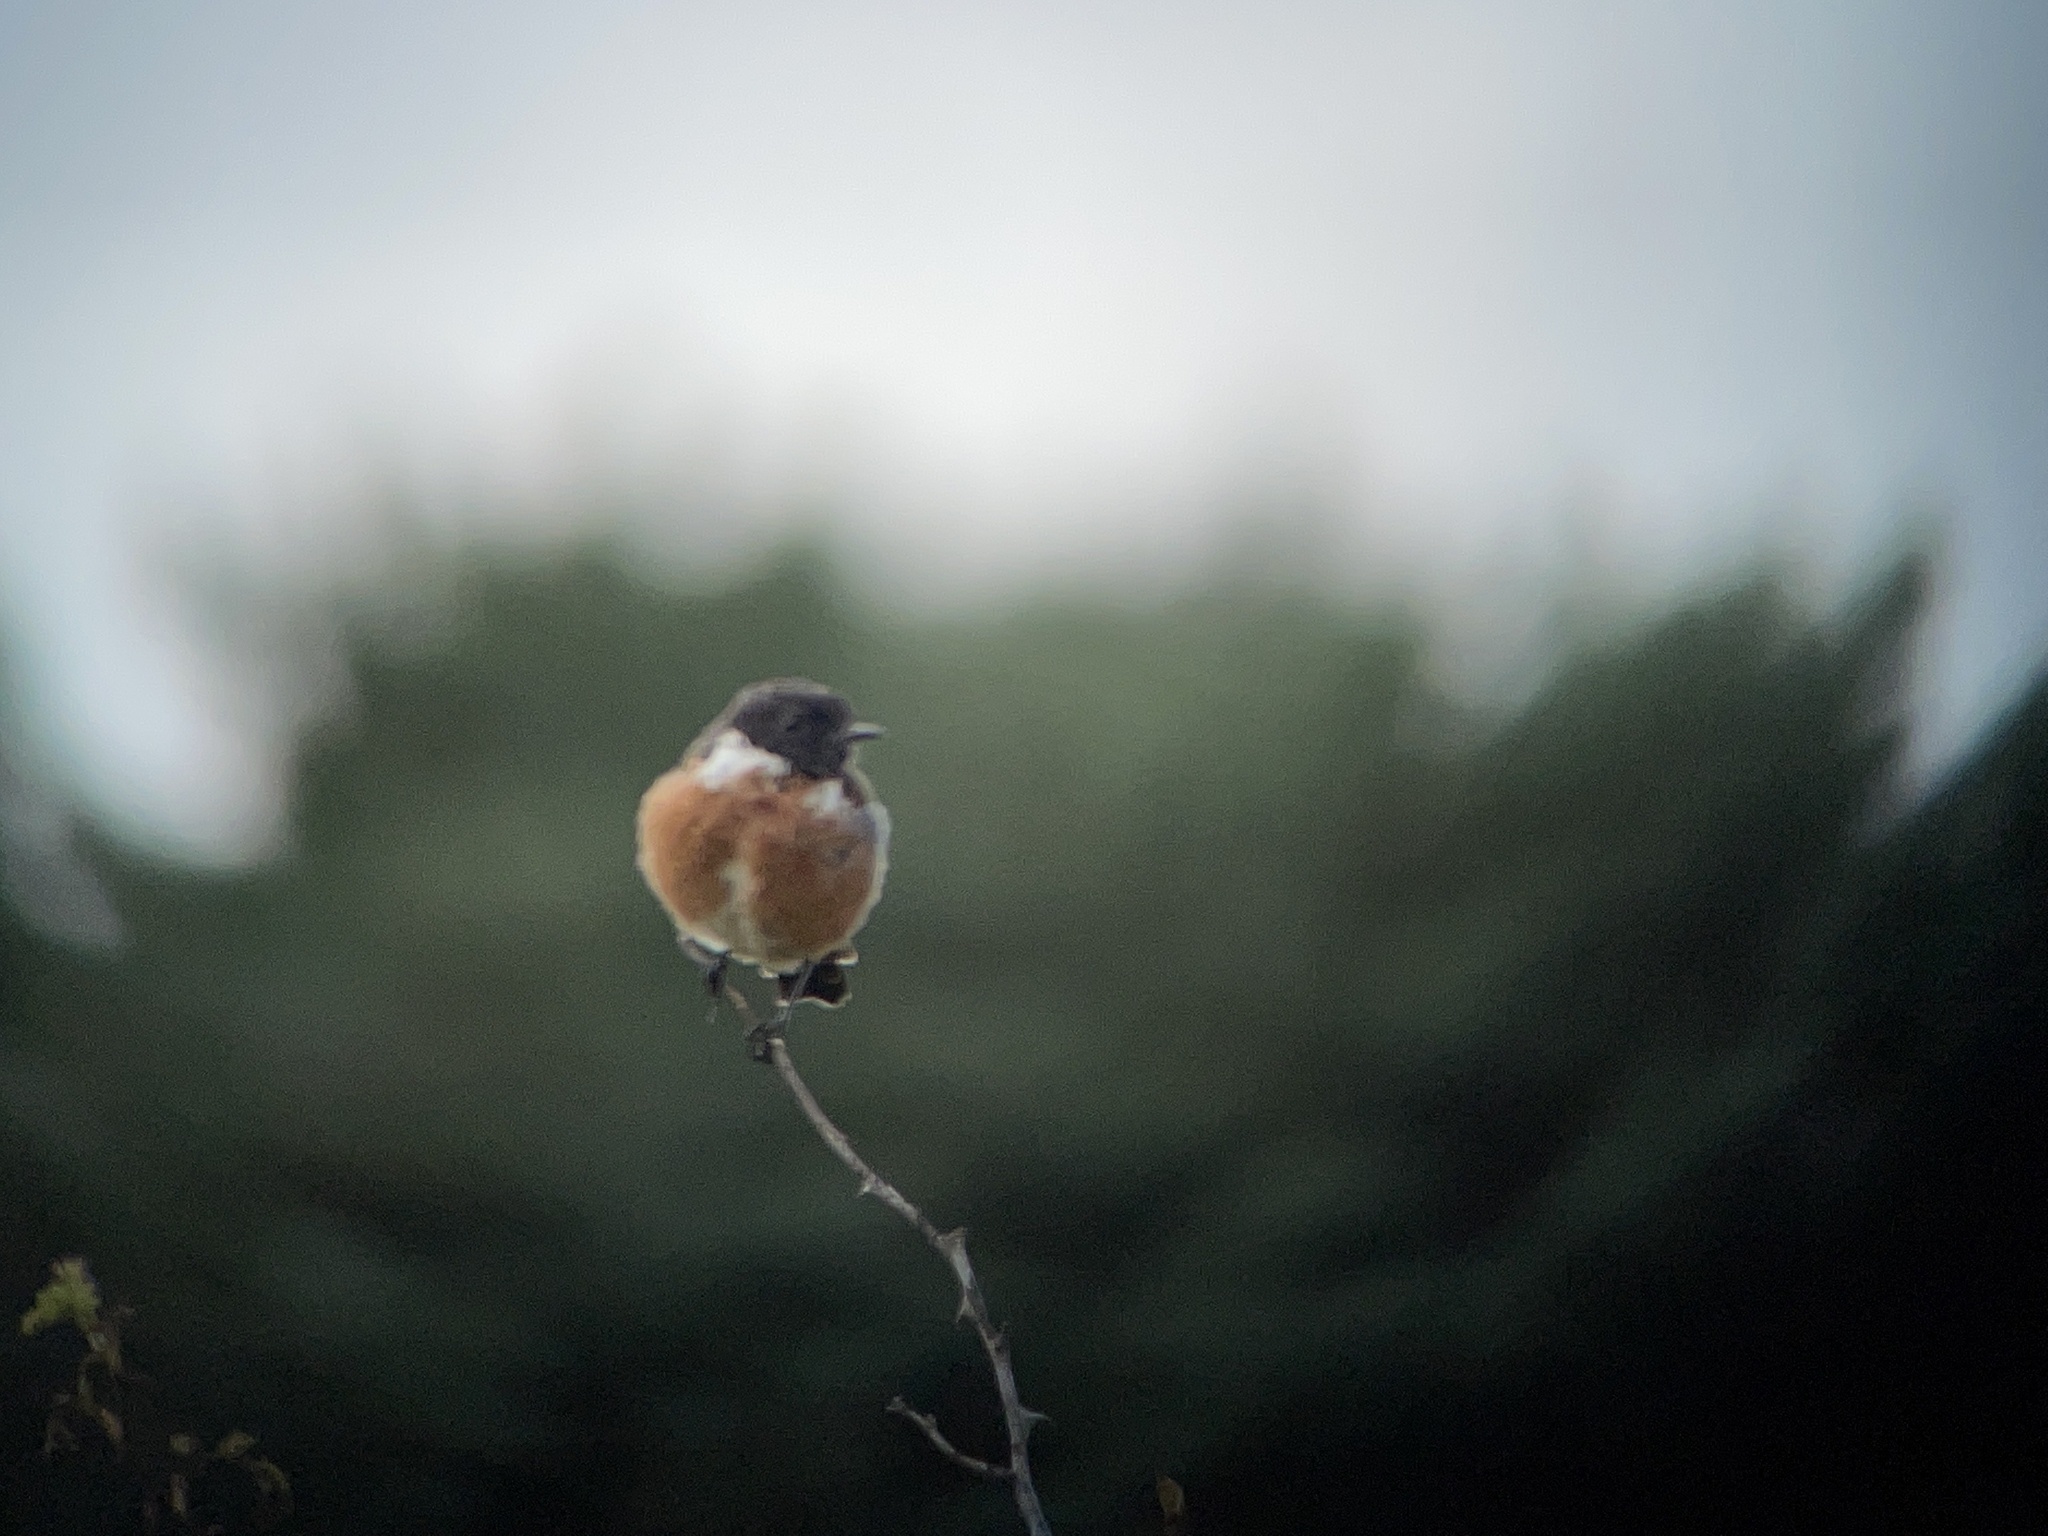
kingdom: Animalia
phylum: Chordata
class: Aves
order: Passeriformes
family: Muscicapidae
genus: Saxicola
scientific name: Saxicola rubicola
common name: European stonechat
